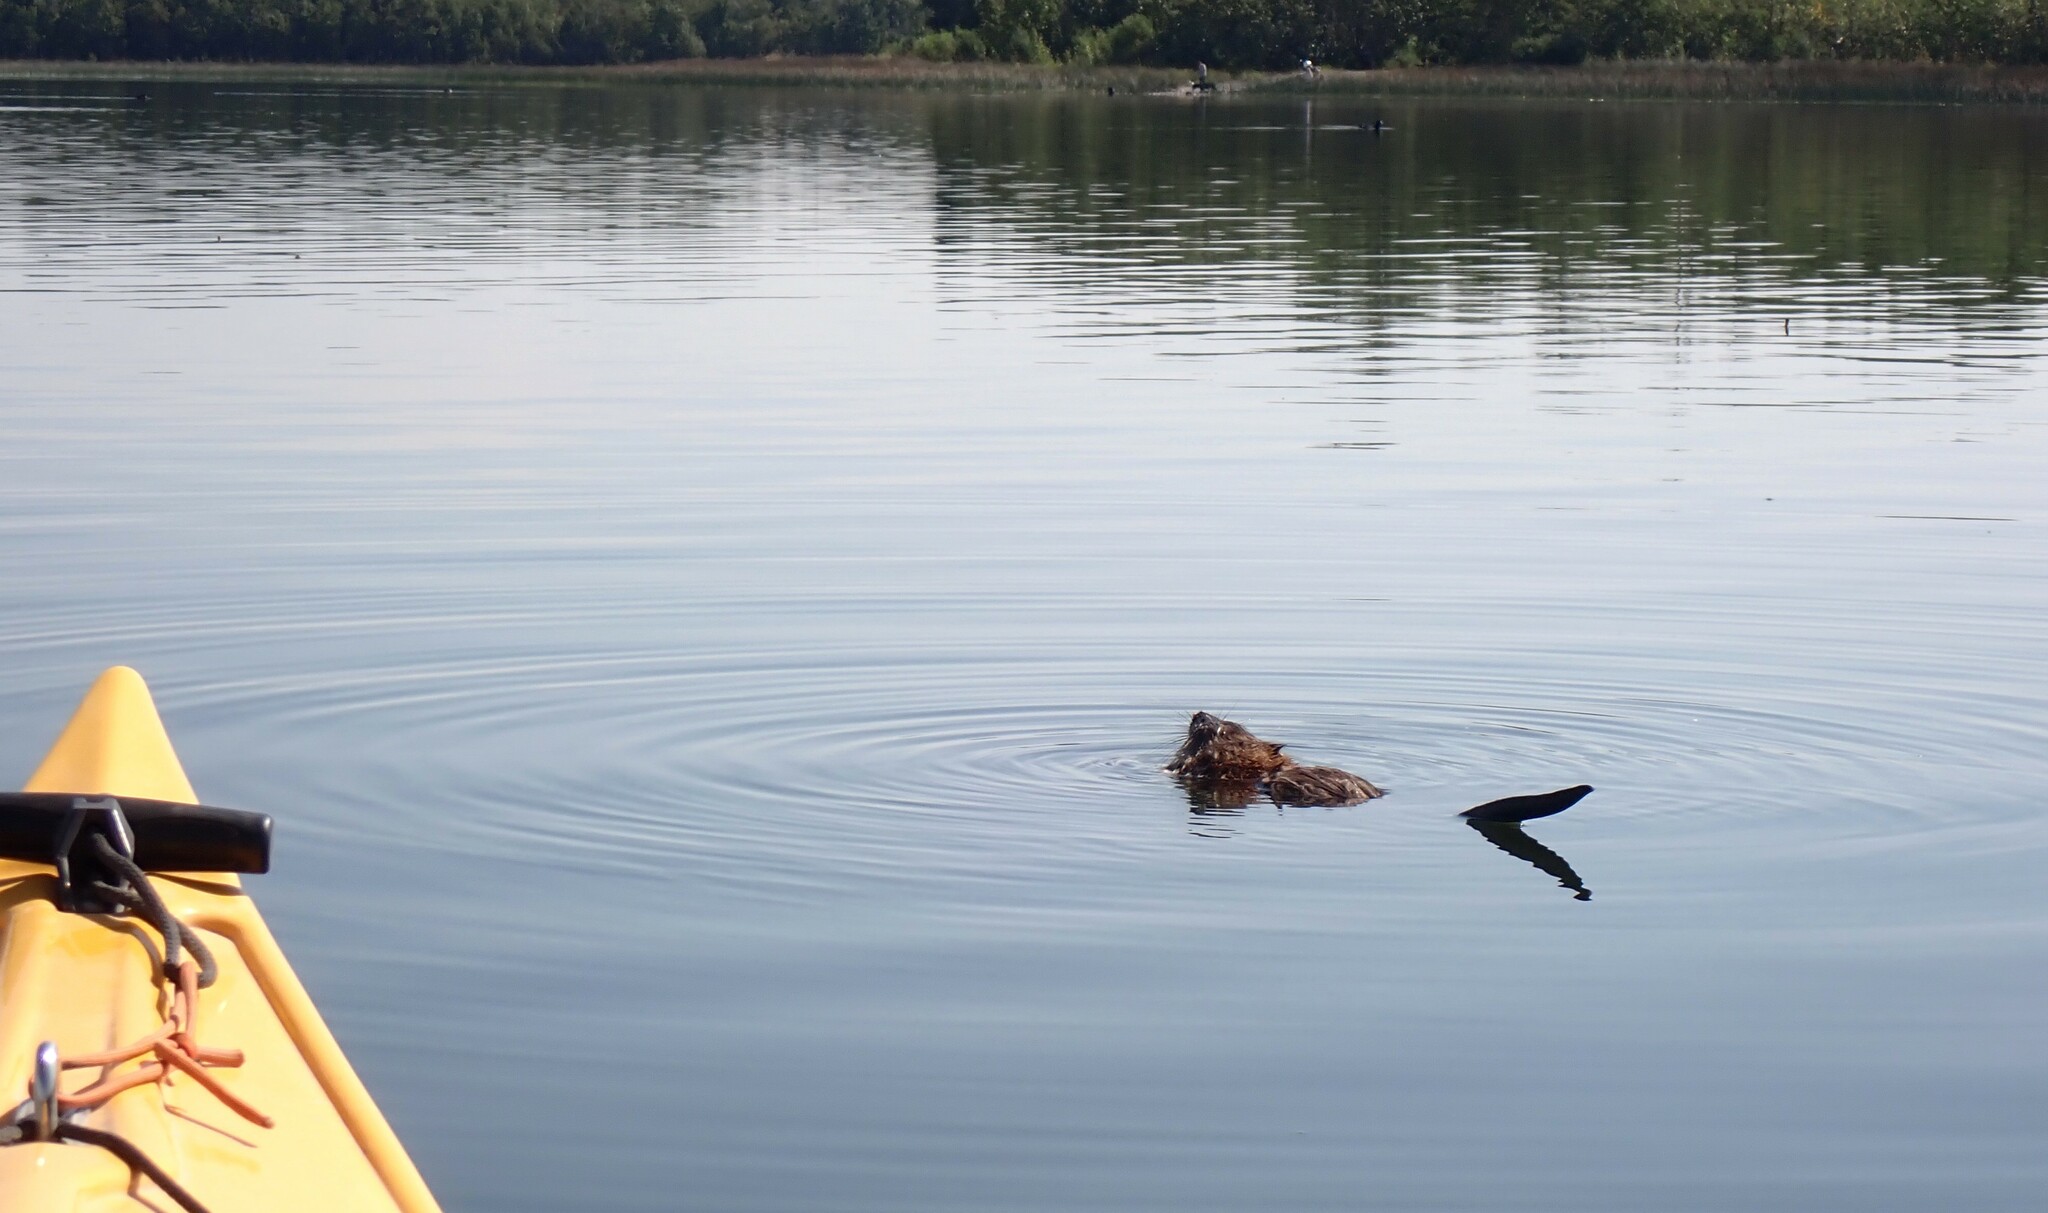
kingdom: Animalia
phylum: Chordata
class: Mammalia
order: Rodentia
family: Cricetidae
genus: Ondatra
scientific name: Ondatra zibethicus
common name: Muskrat
